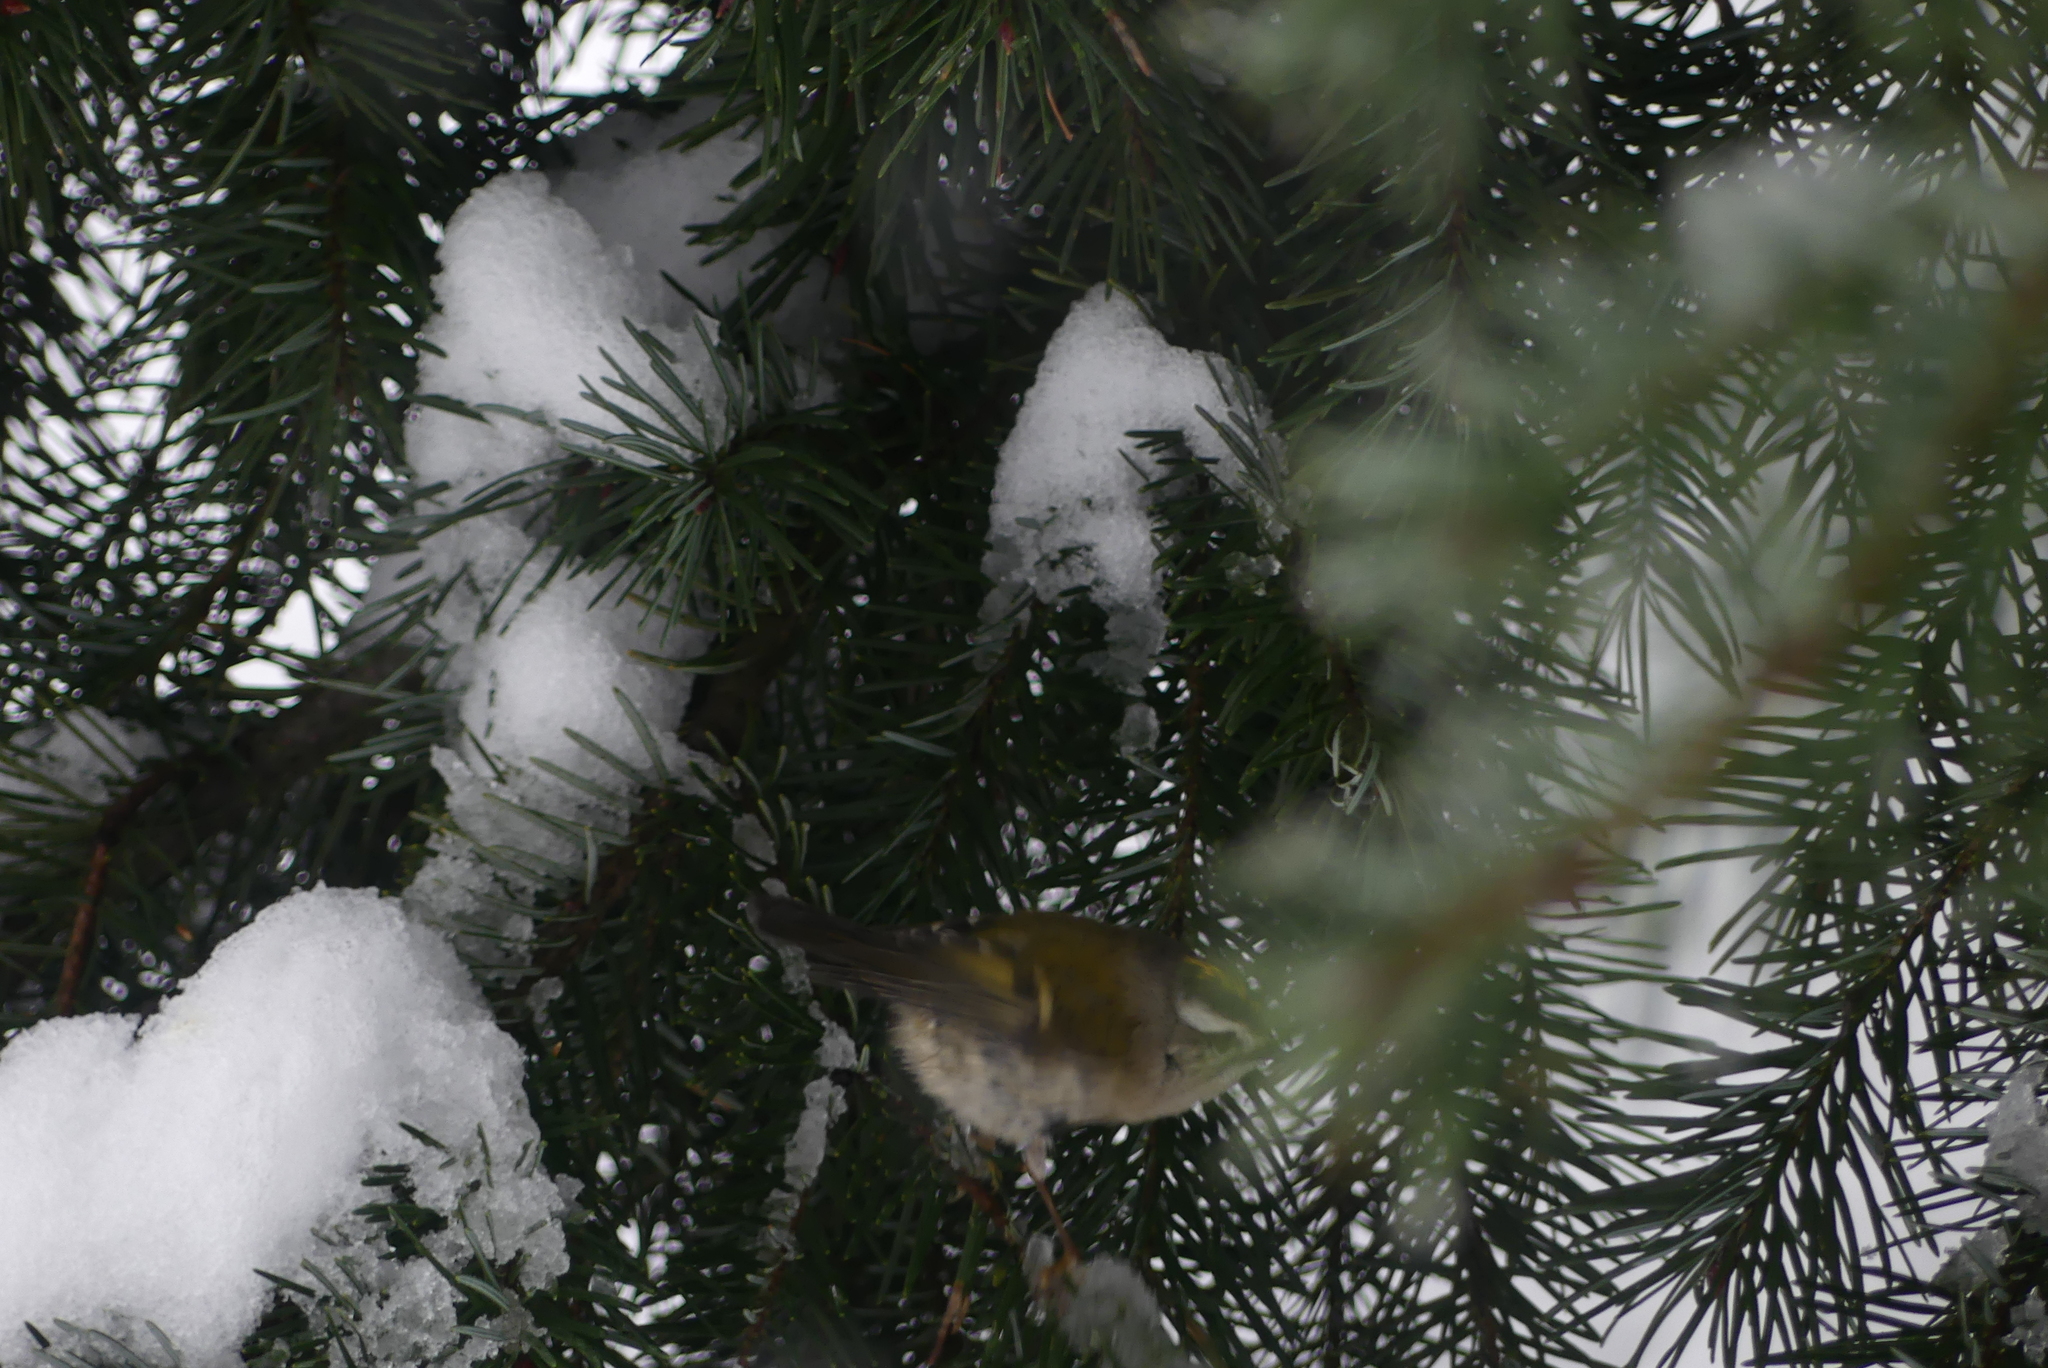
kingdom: Animalia
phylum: Chordata
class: Aves
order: Passeriformes
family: Regulidae
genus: Regulus
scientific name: Regulus satrapa
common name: Golden-crowned kinglet
